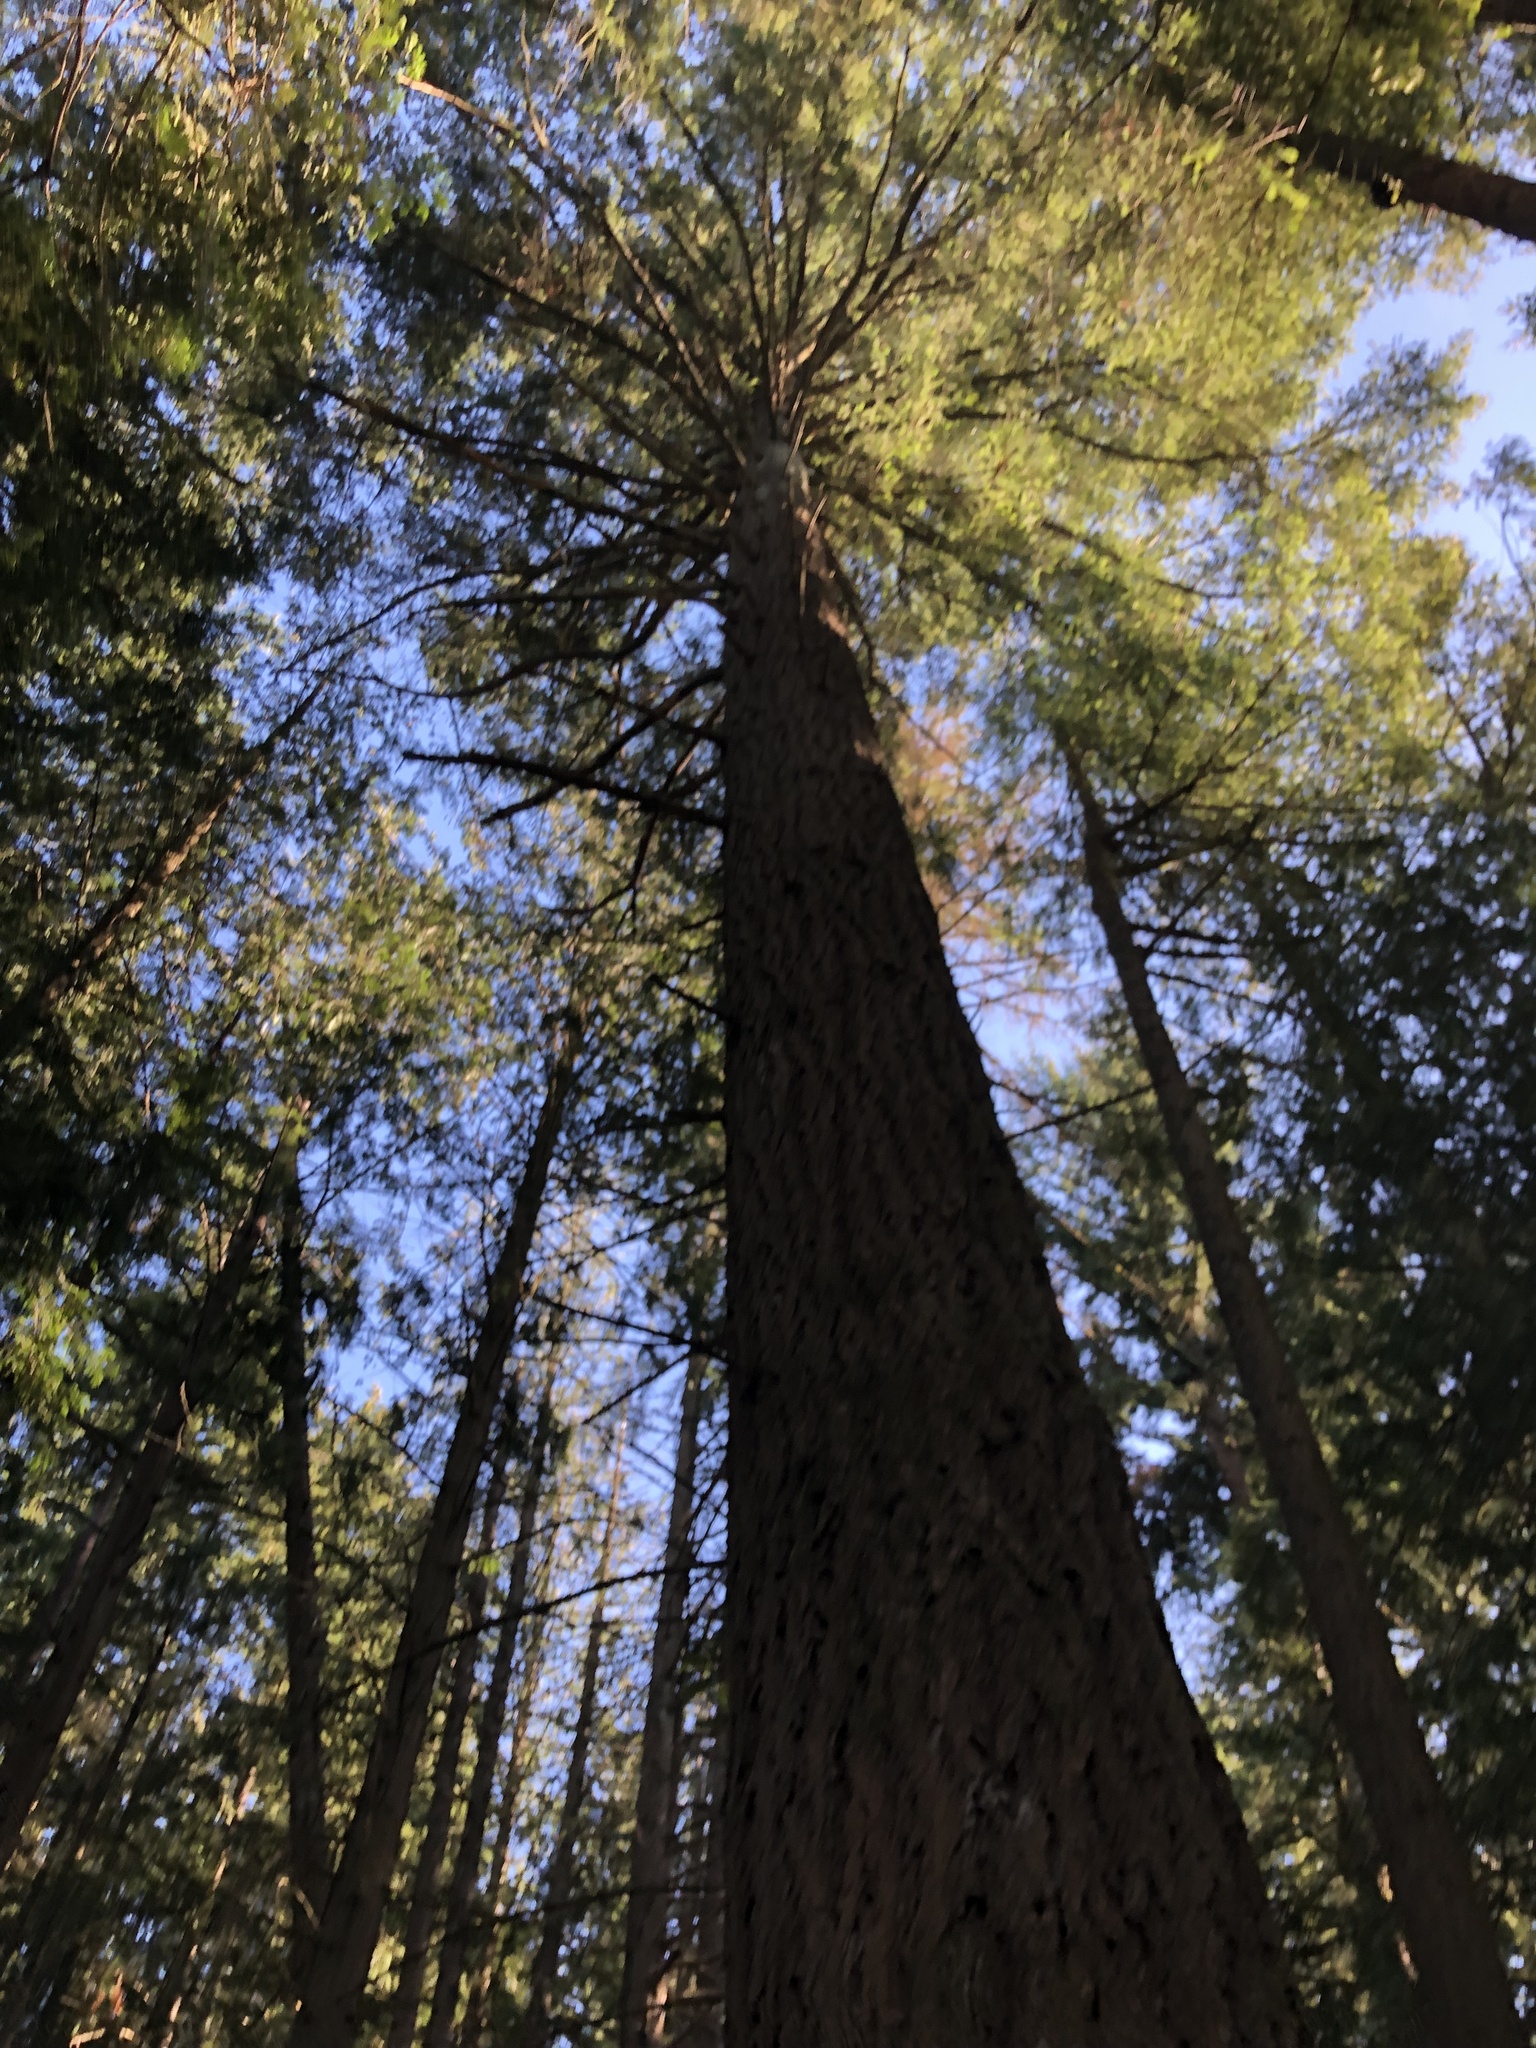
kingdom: Plantae
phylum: Tracheophyta
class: Pinopsida
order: Pinales
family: Pinaceae
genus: Pseudotsuga
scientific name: Pseudotsuga menziesii
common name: Douglas fir
